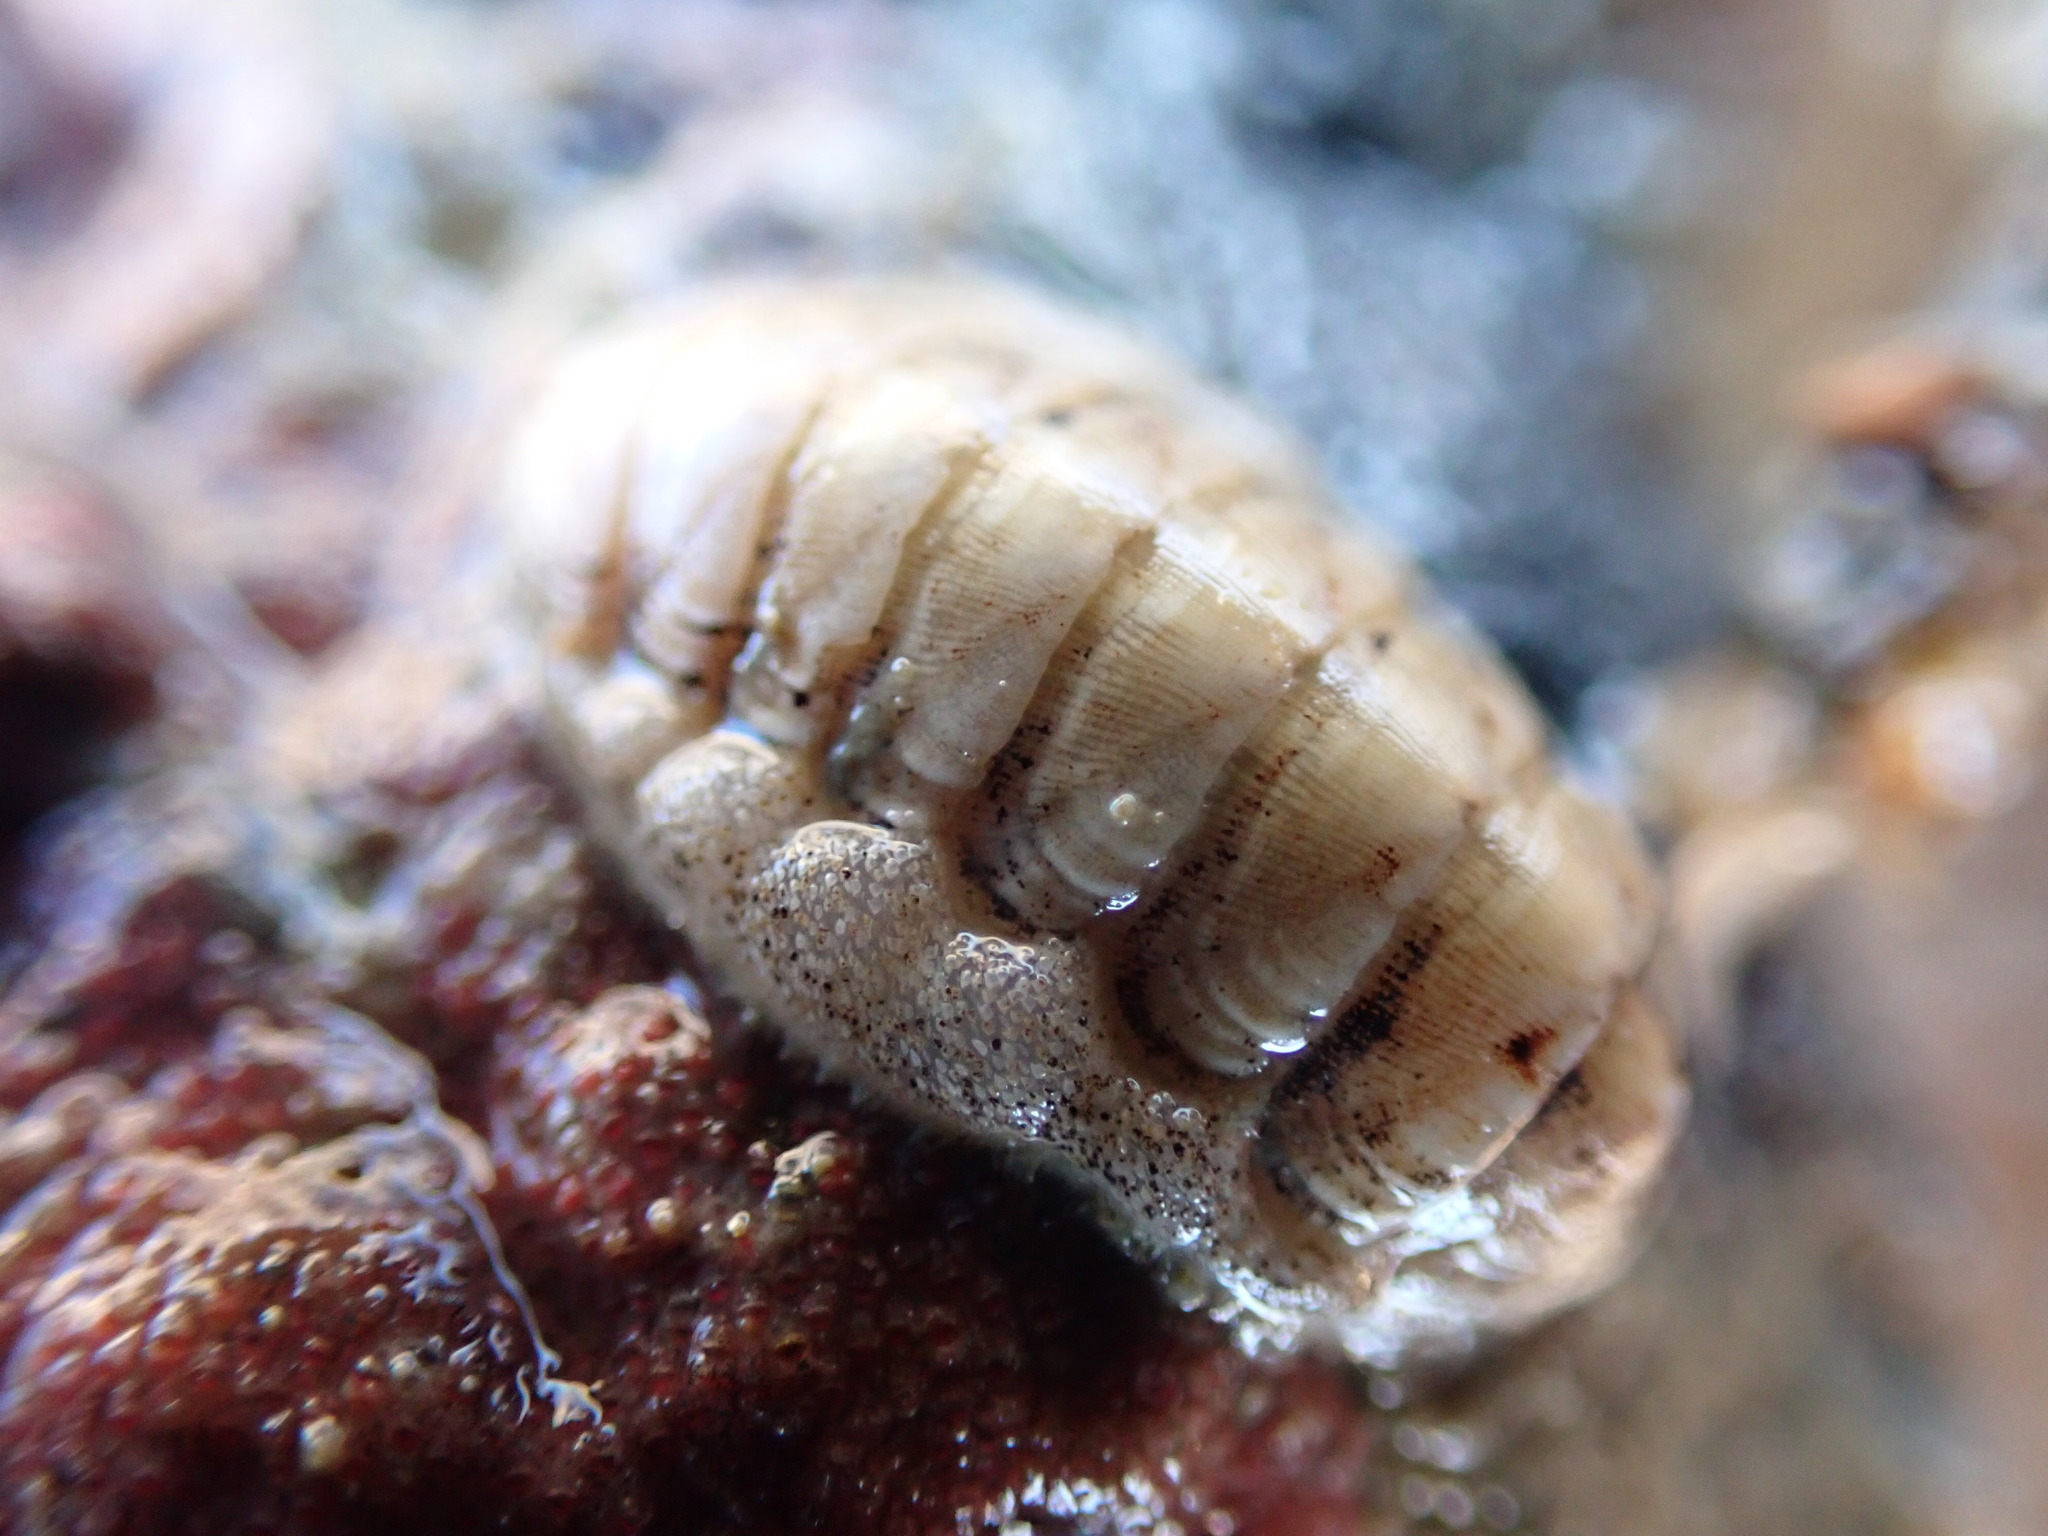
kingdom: Animalia
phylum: Mollusca
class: Polyplacophora
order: Lepidopleurida
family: Leptochitonidae
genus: Leptochiton
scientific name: Leptochiton inquinatus
